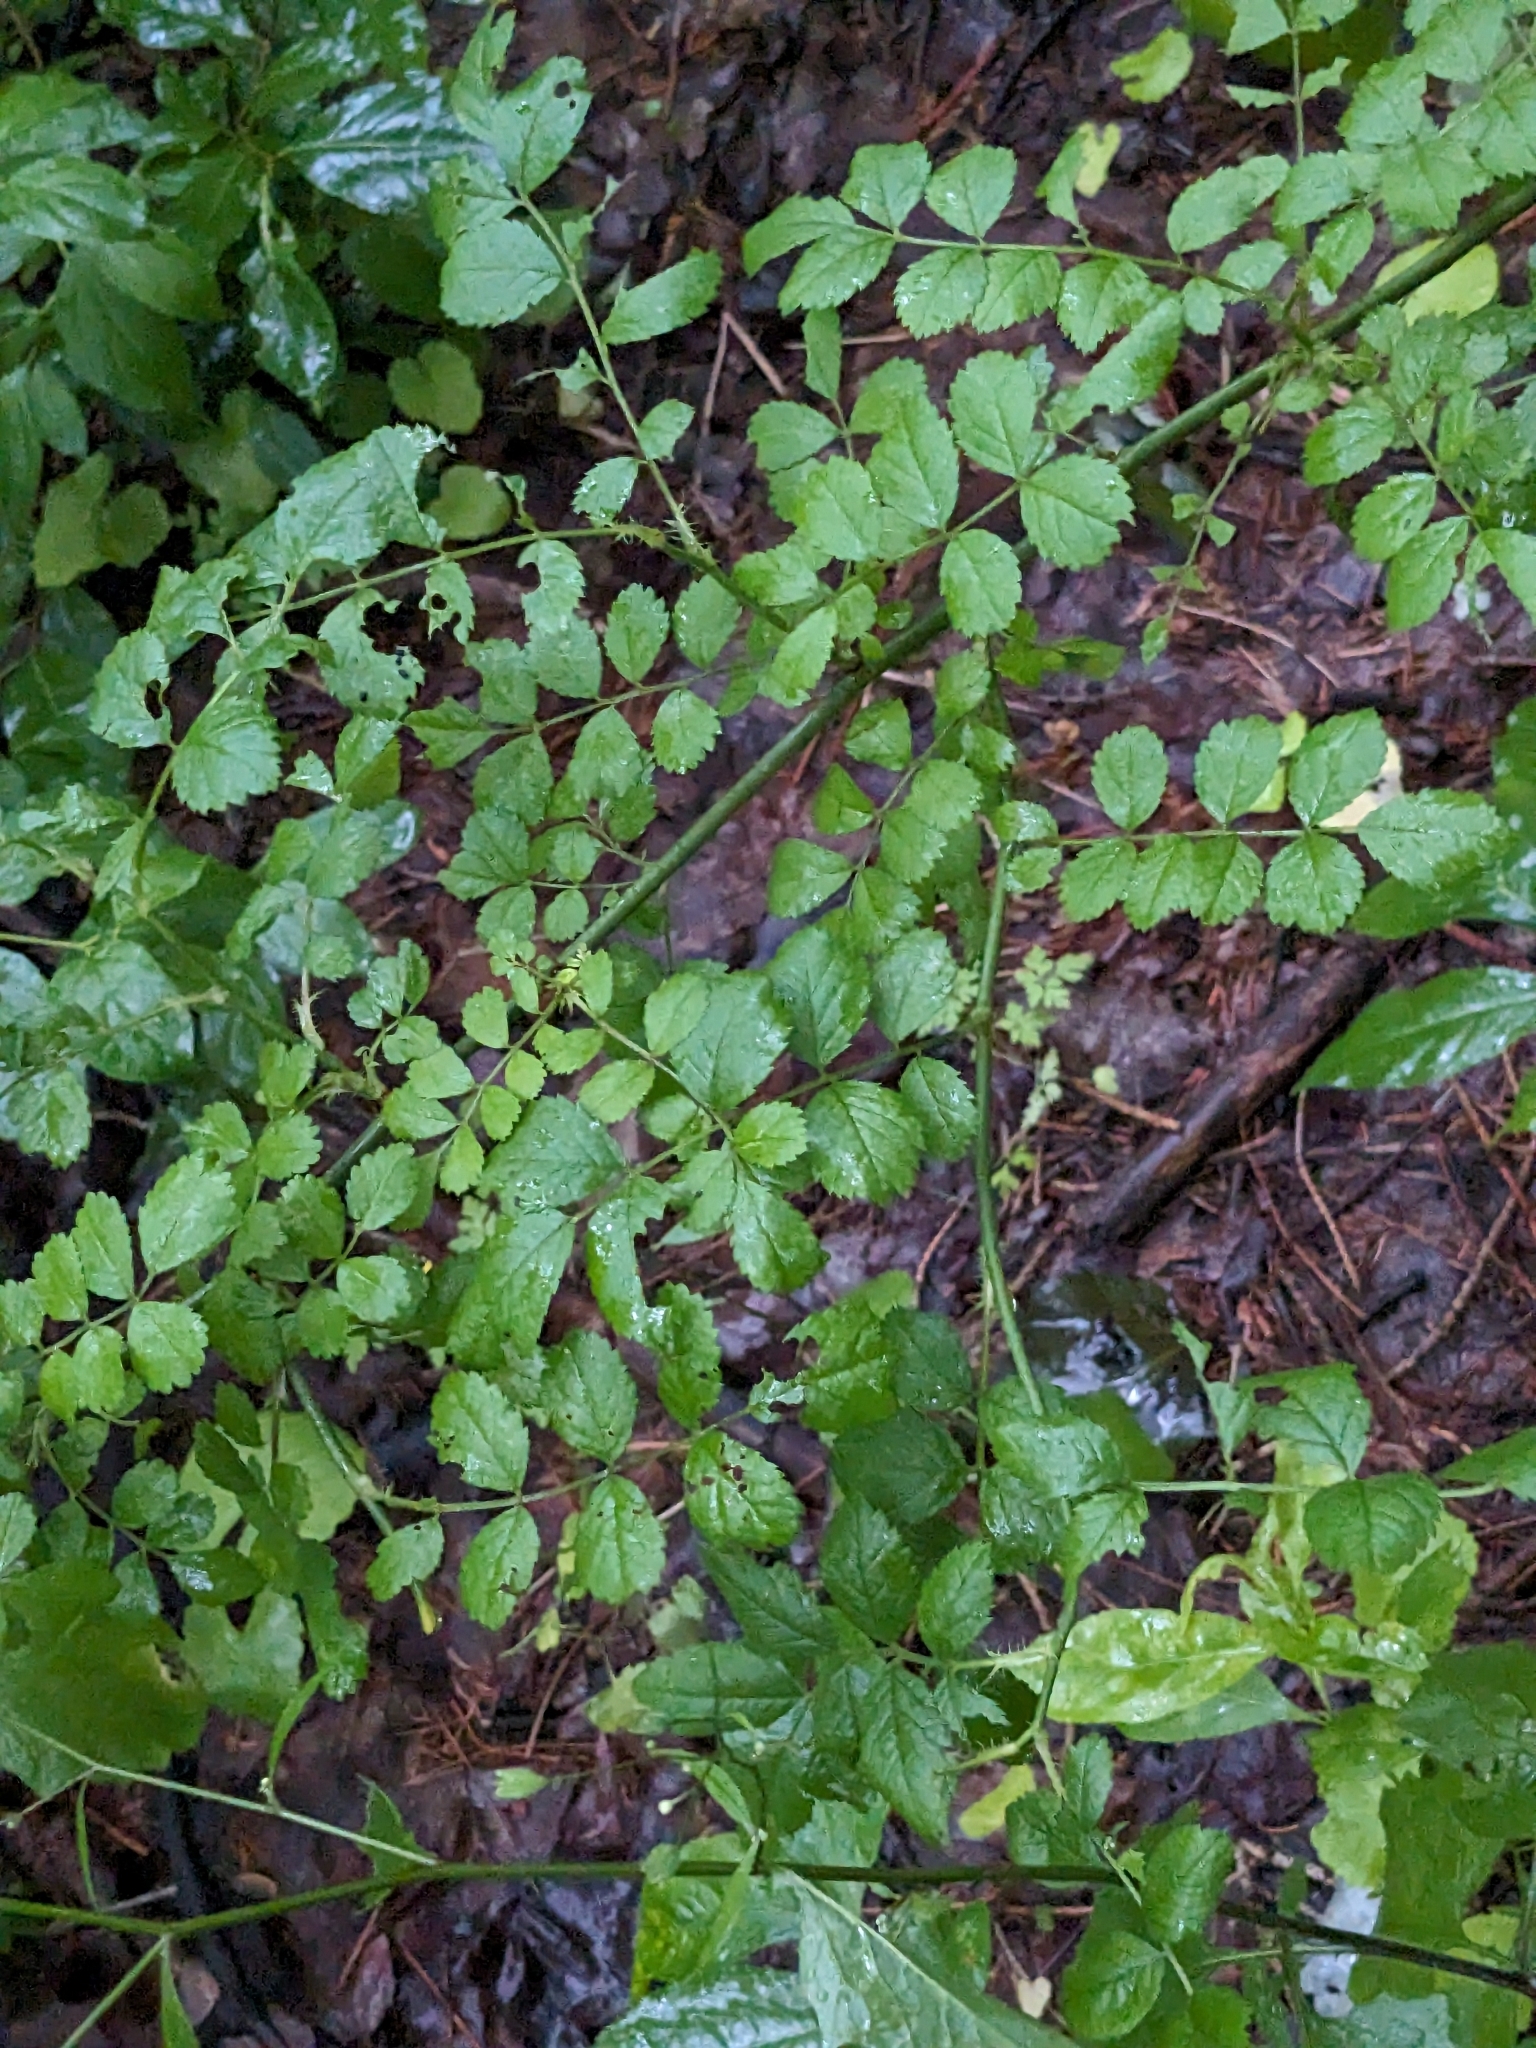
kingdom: Plantae
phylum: Tracheophyta
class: Magnoliopsida
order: Rosales
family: Rosaceae
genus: Rosa
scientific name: Rosa multiflora
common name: Multiflora rose
